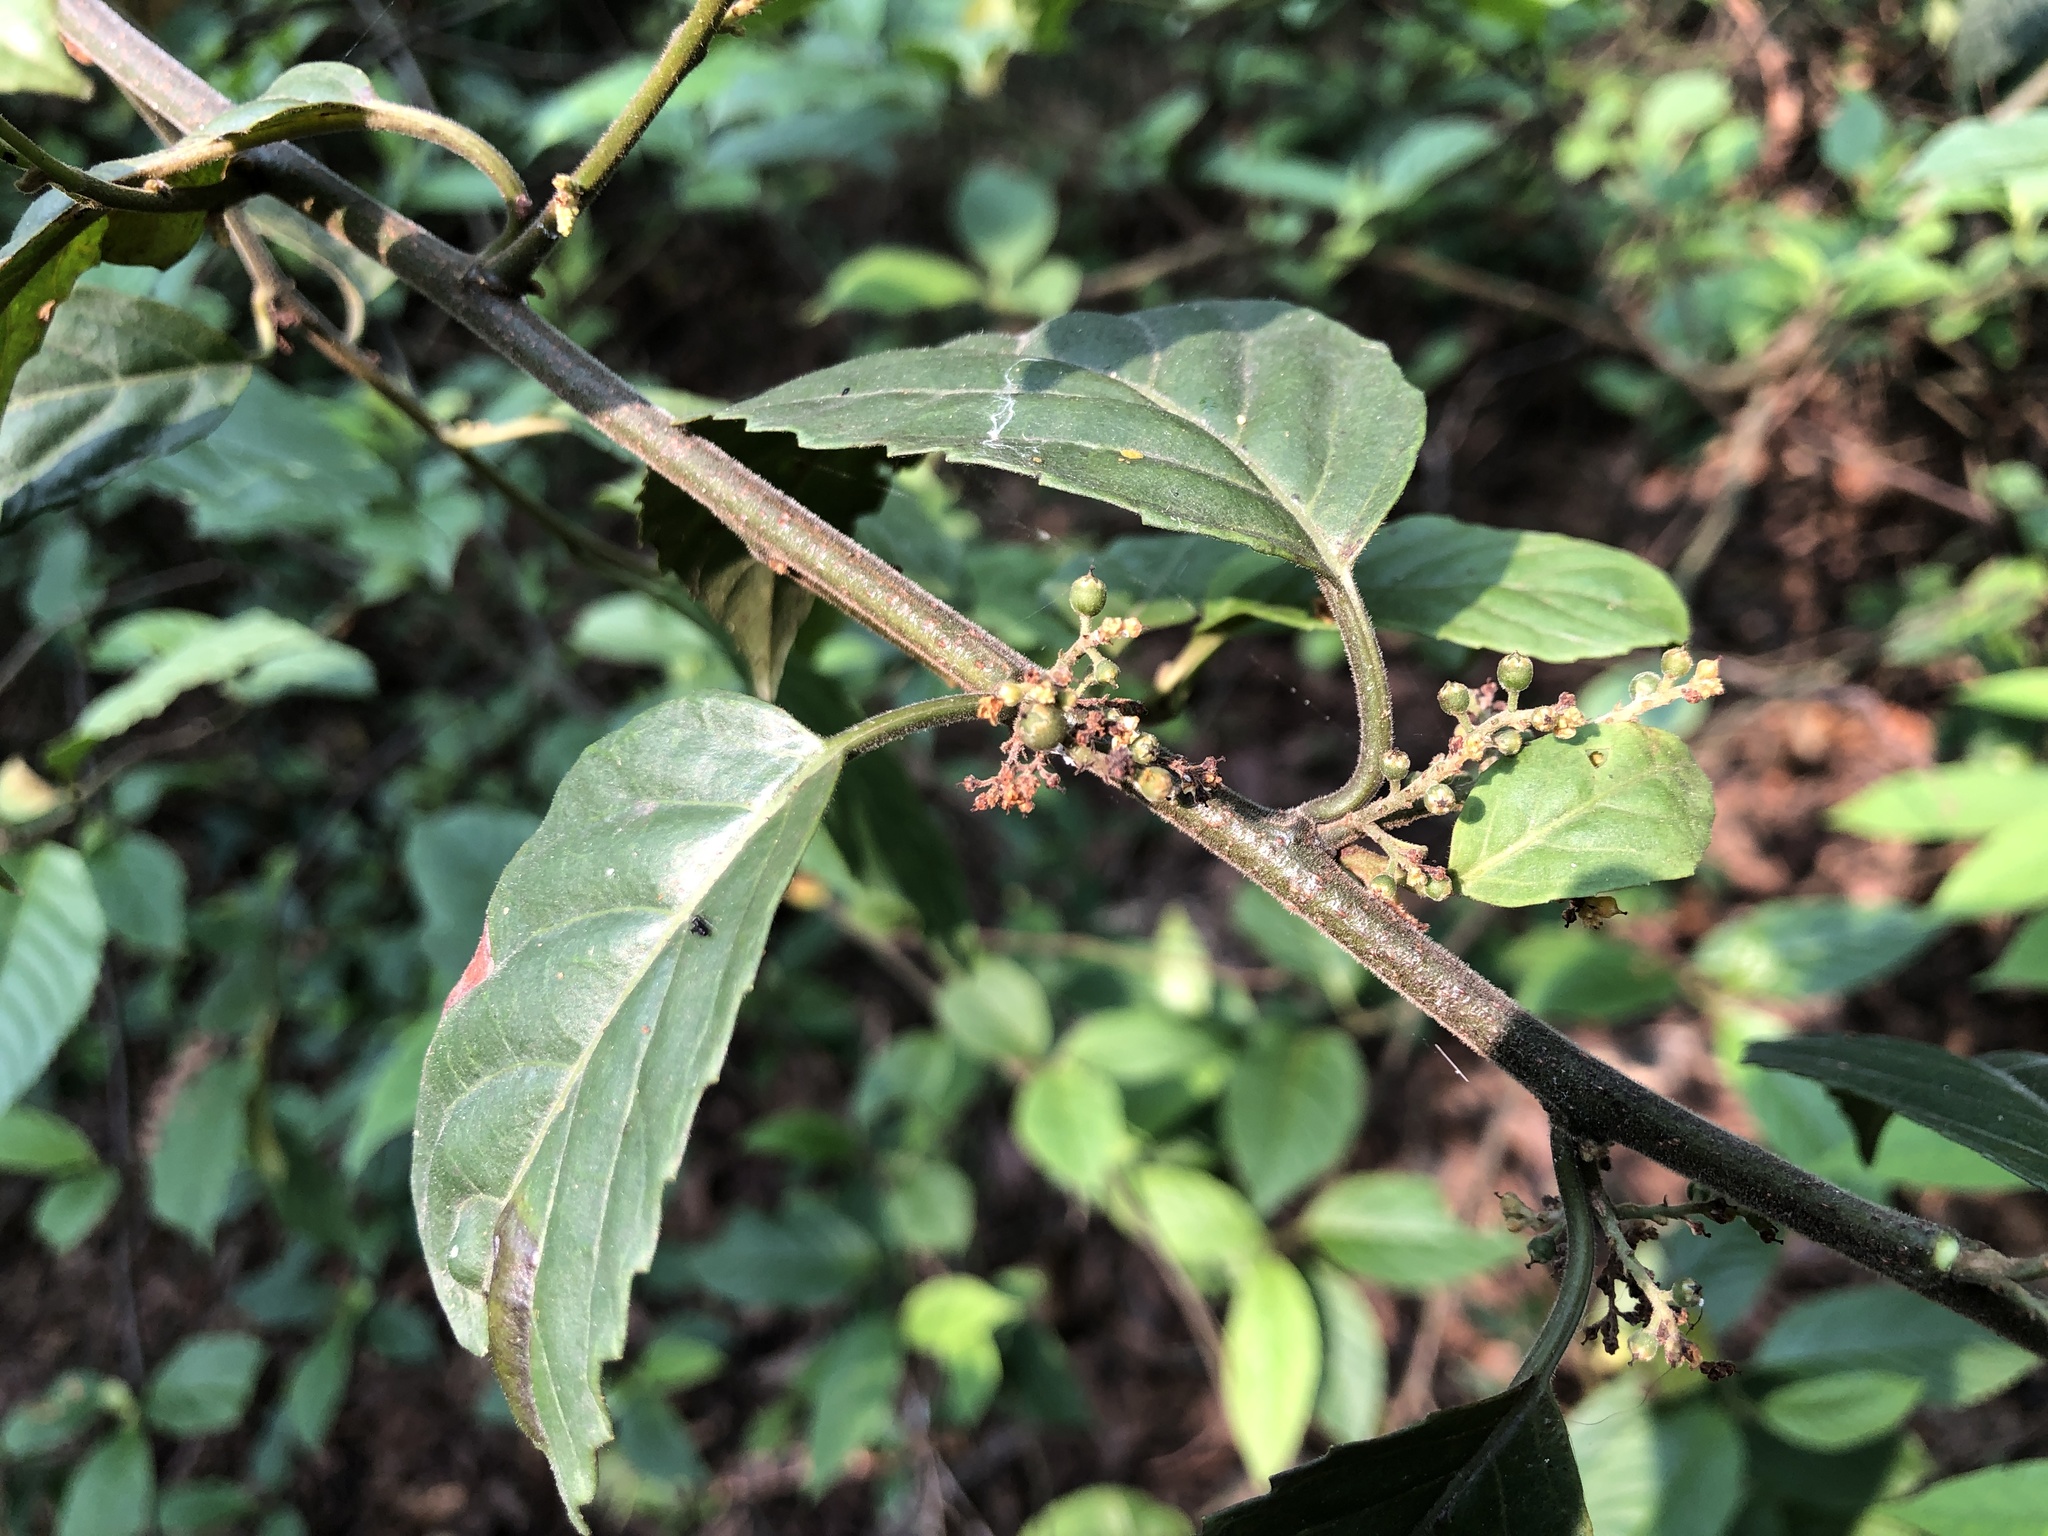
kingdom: Plantae
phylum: Tracheophyta
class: Magnoliopsida
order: Ericales
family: Primulaceae
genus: Maesa
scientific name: Maesa perlaria
